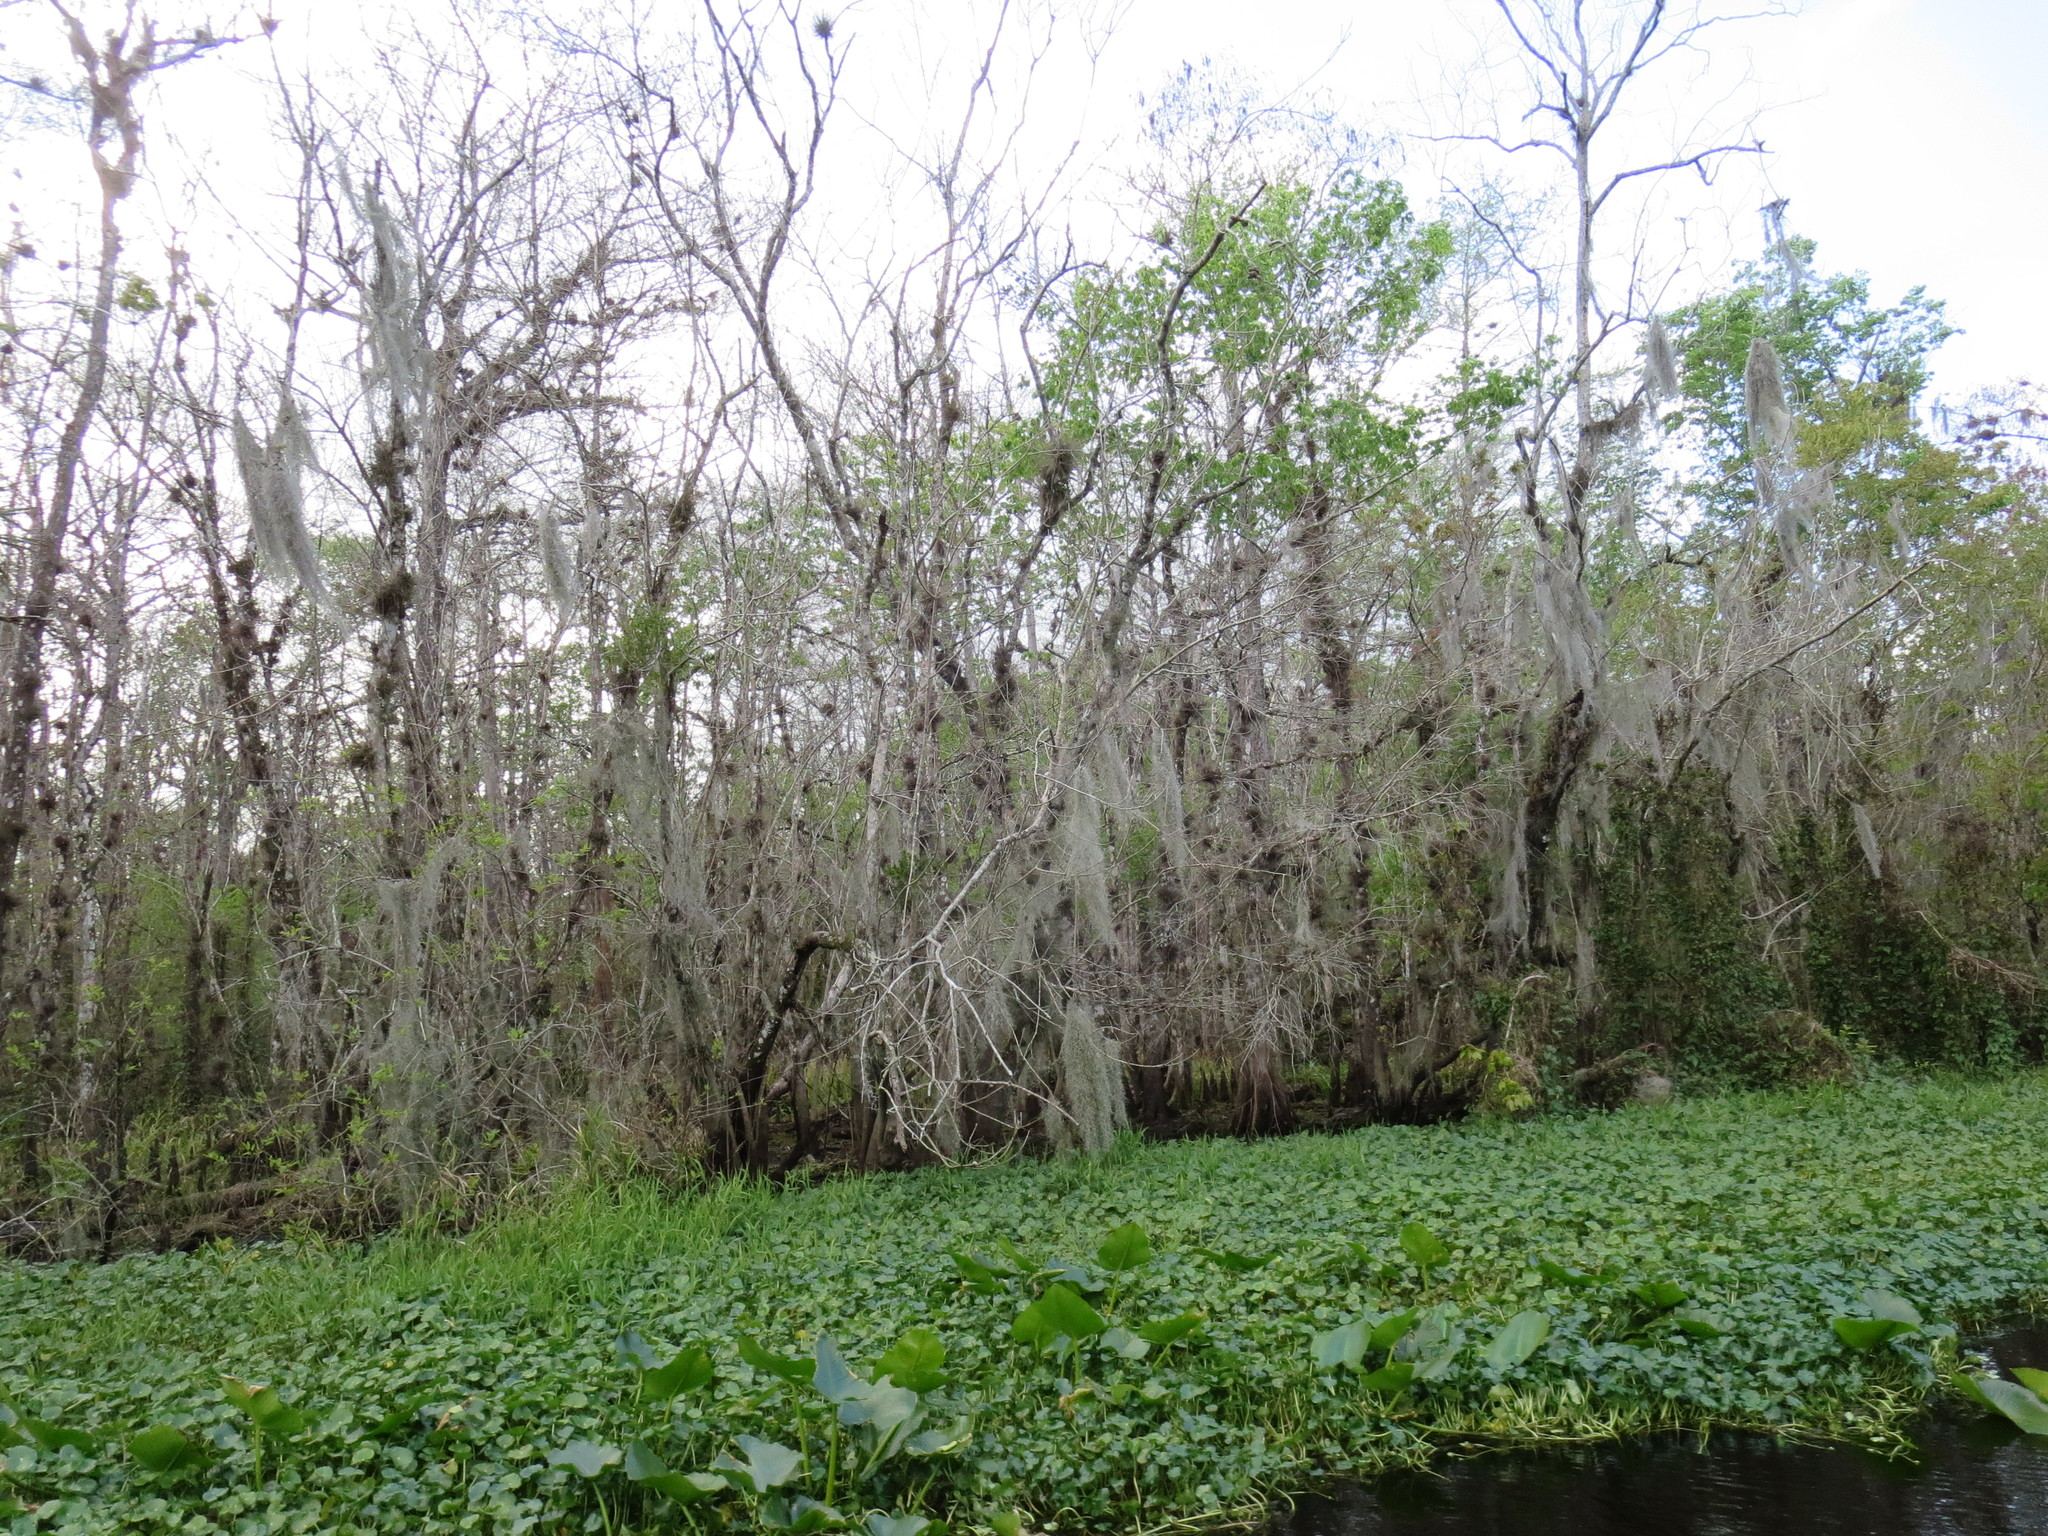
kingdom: Plantae
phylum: Tracheophyta
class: Liliopsida
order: Poales
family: Bromeliaceae
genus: Tillandsia
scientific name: Tillandsia usneoides
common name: Spanish moss
